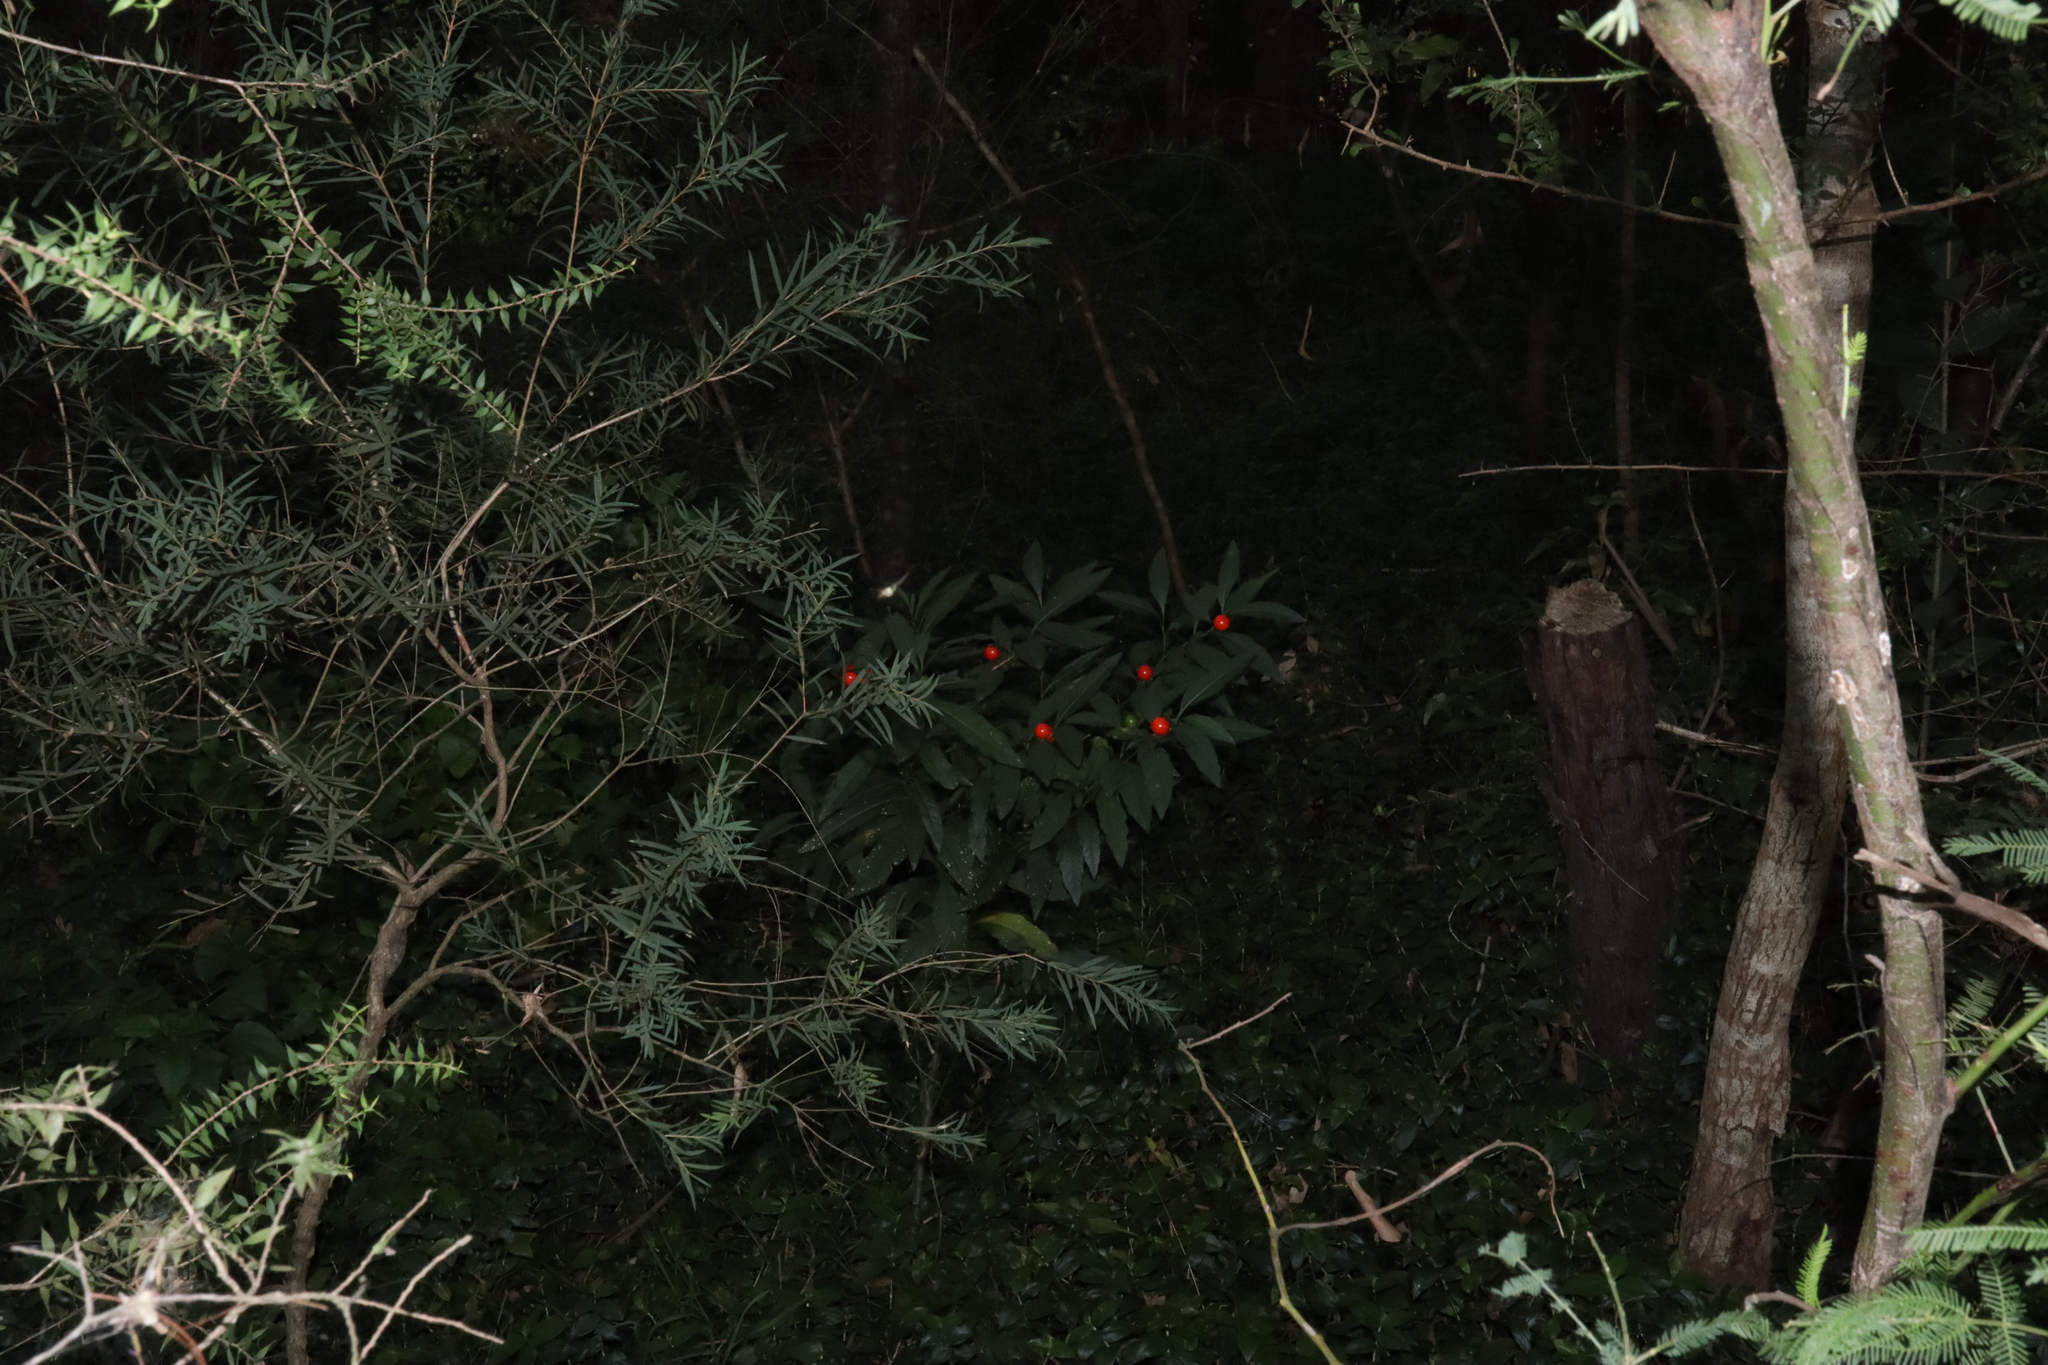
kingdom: Plantae
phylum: Tracheophyta
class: Magnoliopsida
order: Solanales
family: Solanaceae
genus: Solanum
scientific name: Solanum pseudocapsicum
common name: Jerusalem cherry
